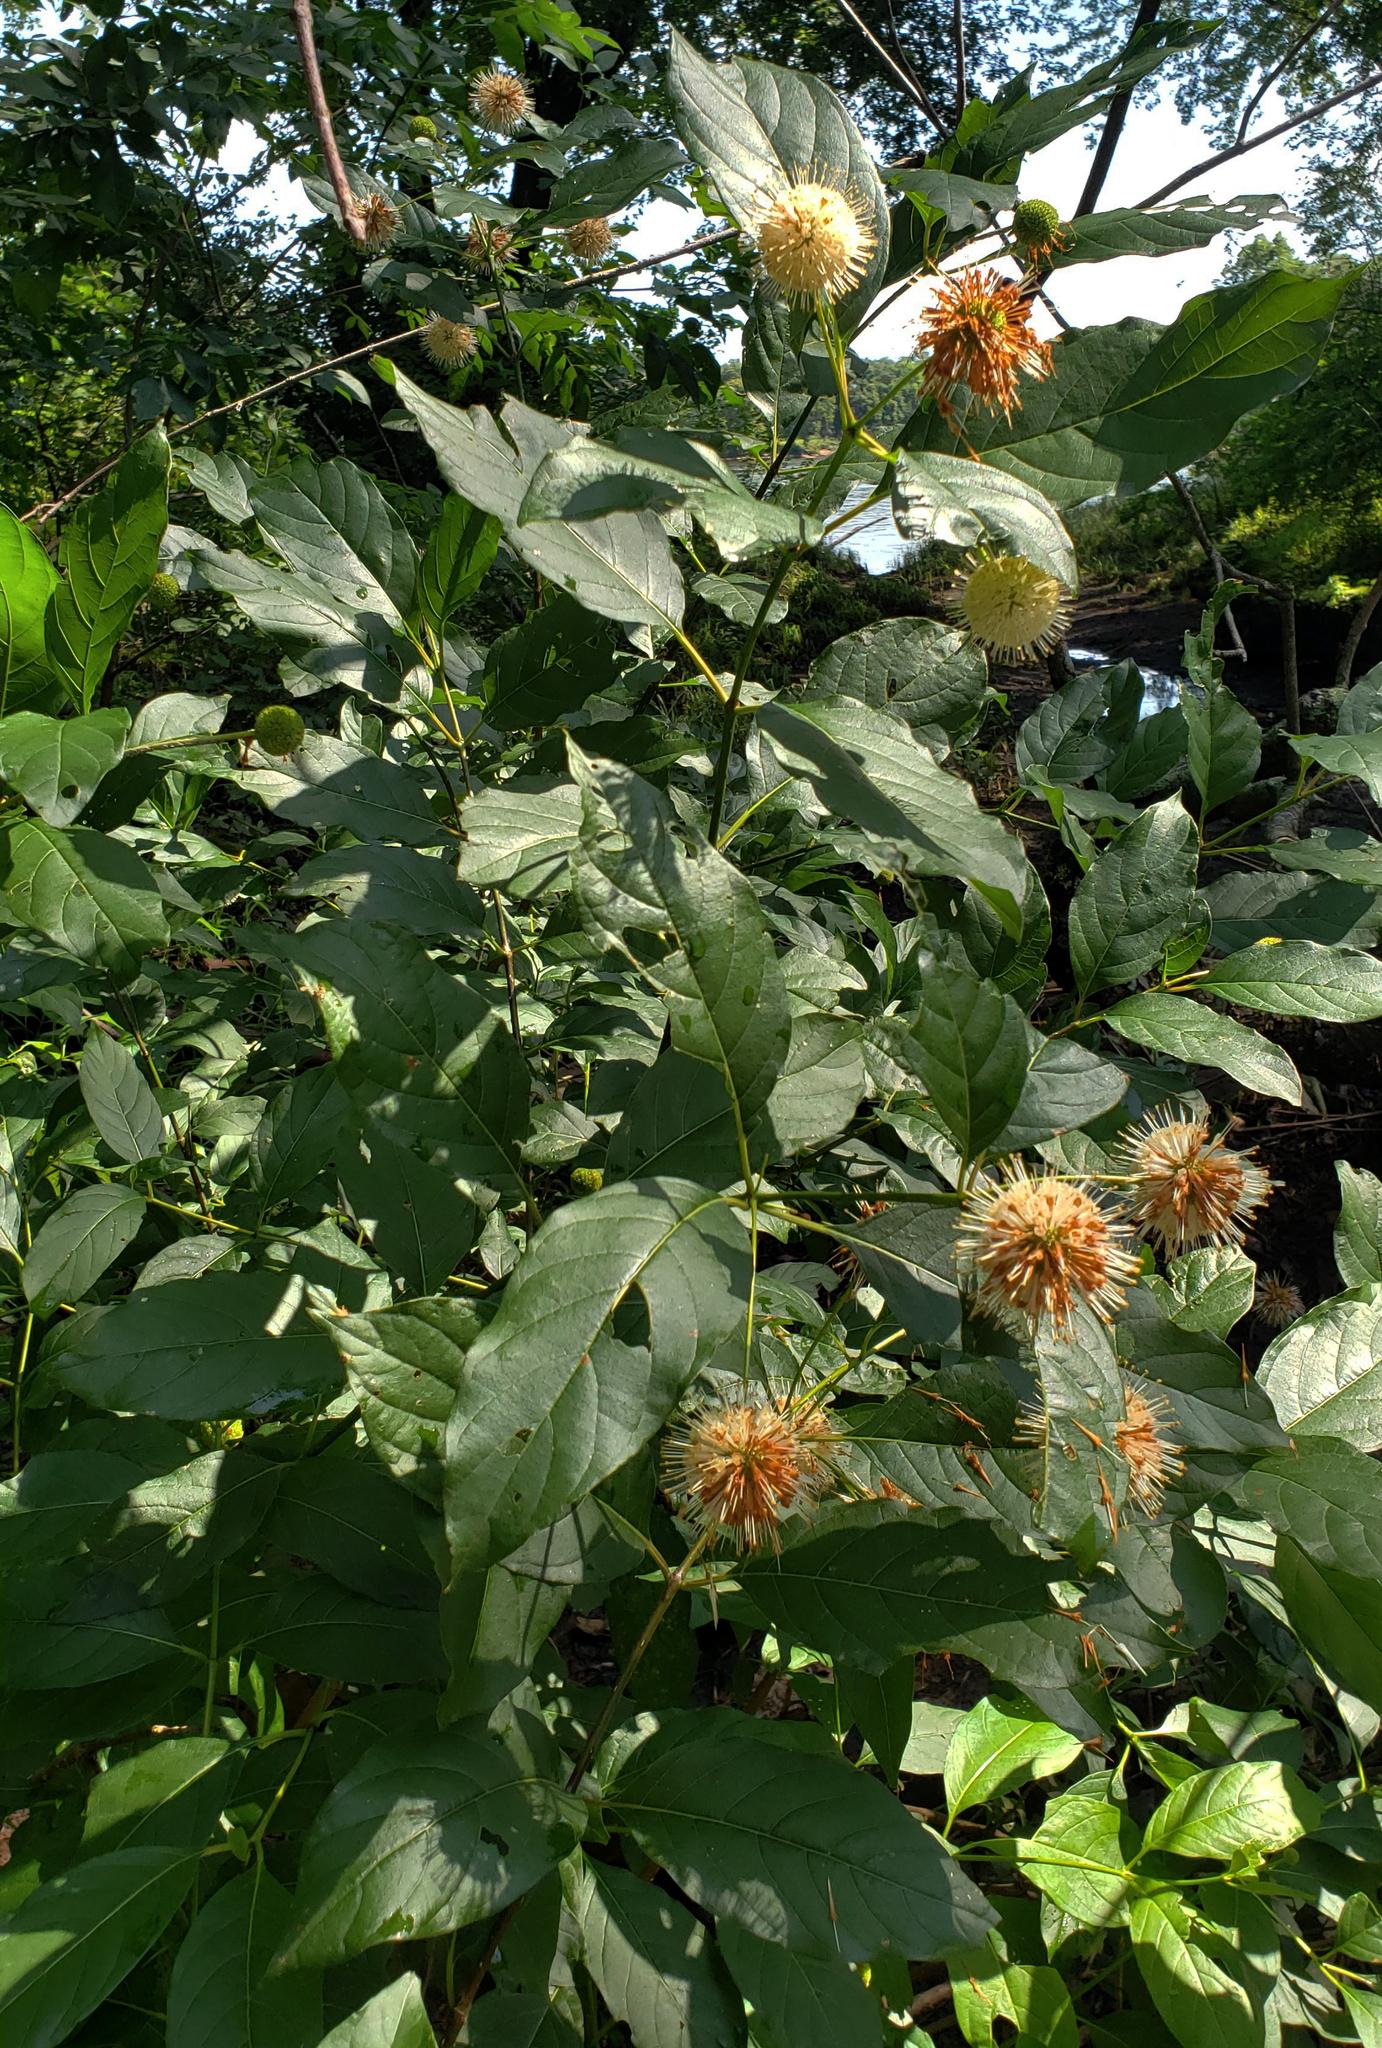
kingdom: Plantae
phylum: Tracheophyta
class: Magnoliopsida
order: Gentianales
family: Rubiaceae
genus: Cephalanthus
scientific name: Cephalanthus occidentalis
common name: Button-willow
